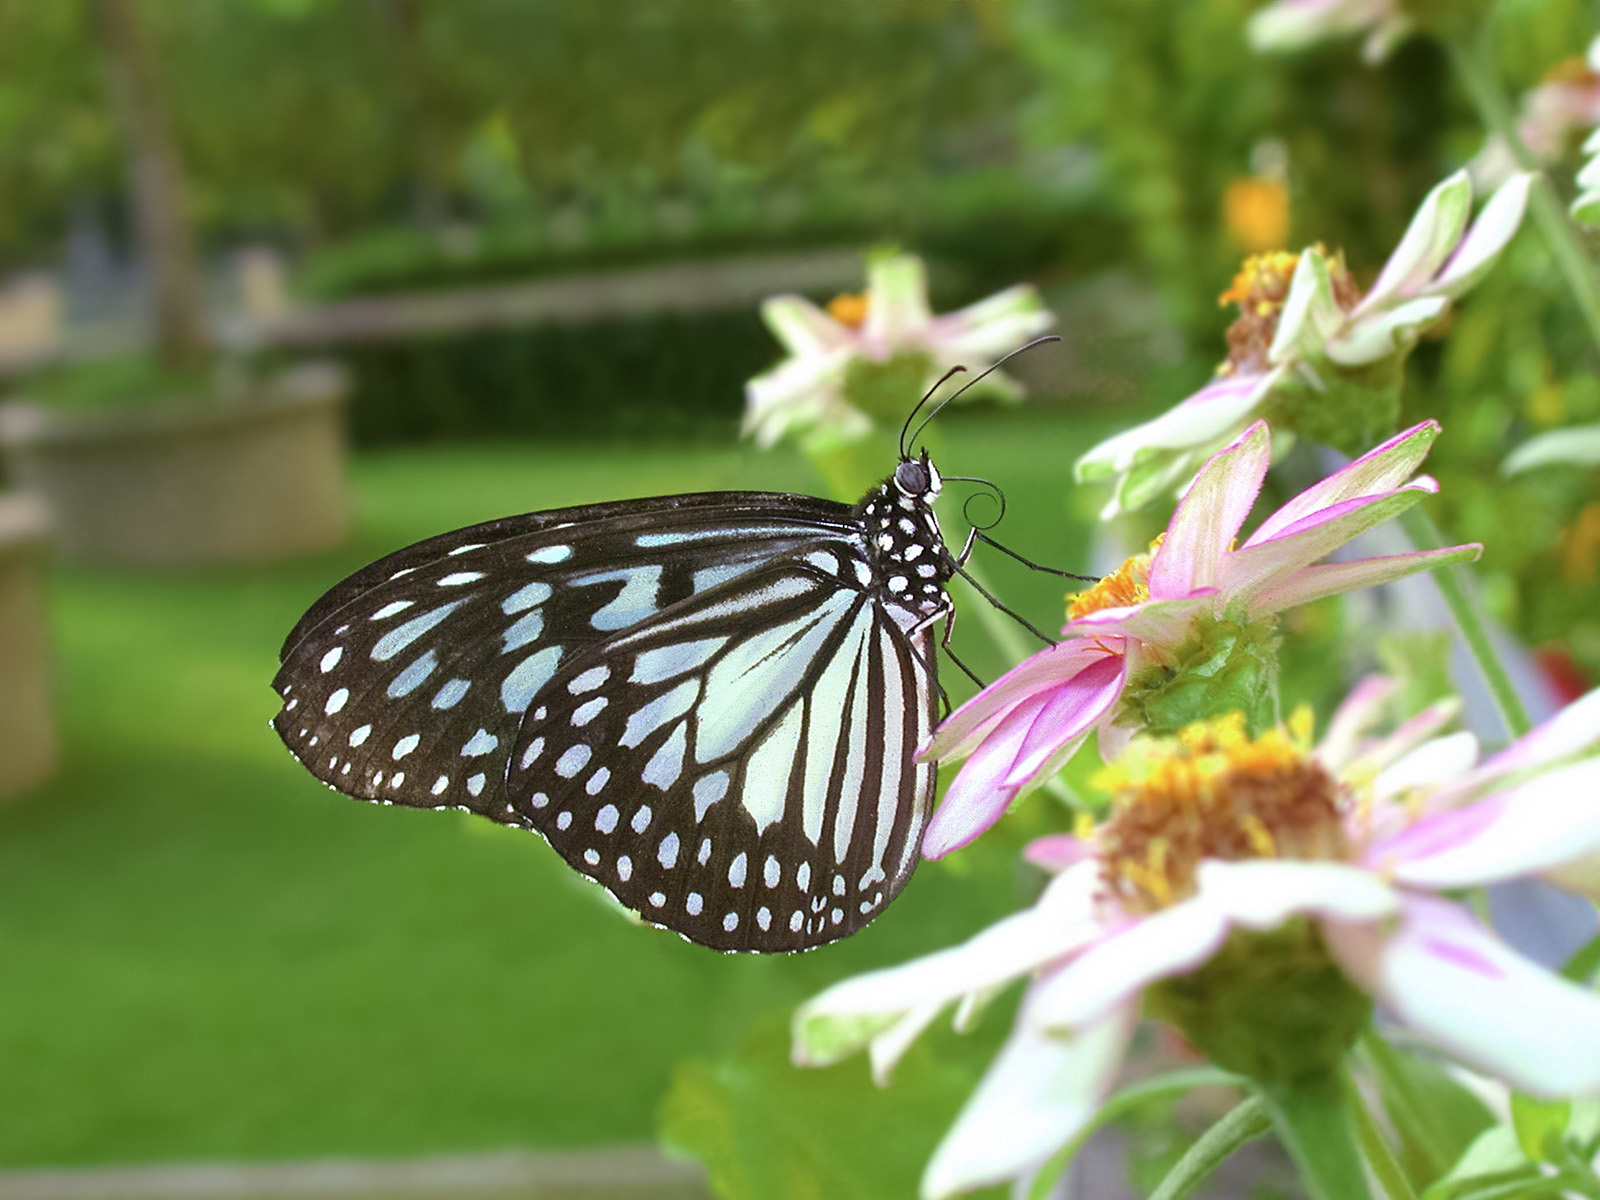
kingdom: Animalia
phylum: Arthropoda
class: Insecta
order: Lepidoptera
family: Nymphalidae
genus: Ideopsis
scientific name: Ideopsis juventa
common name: Grey glassy tiger
